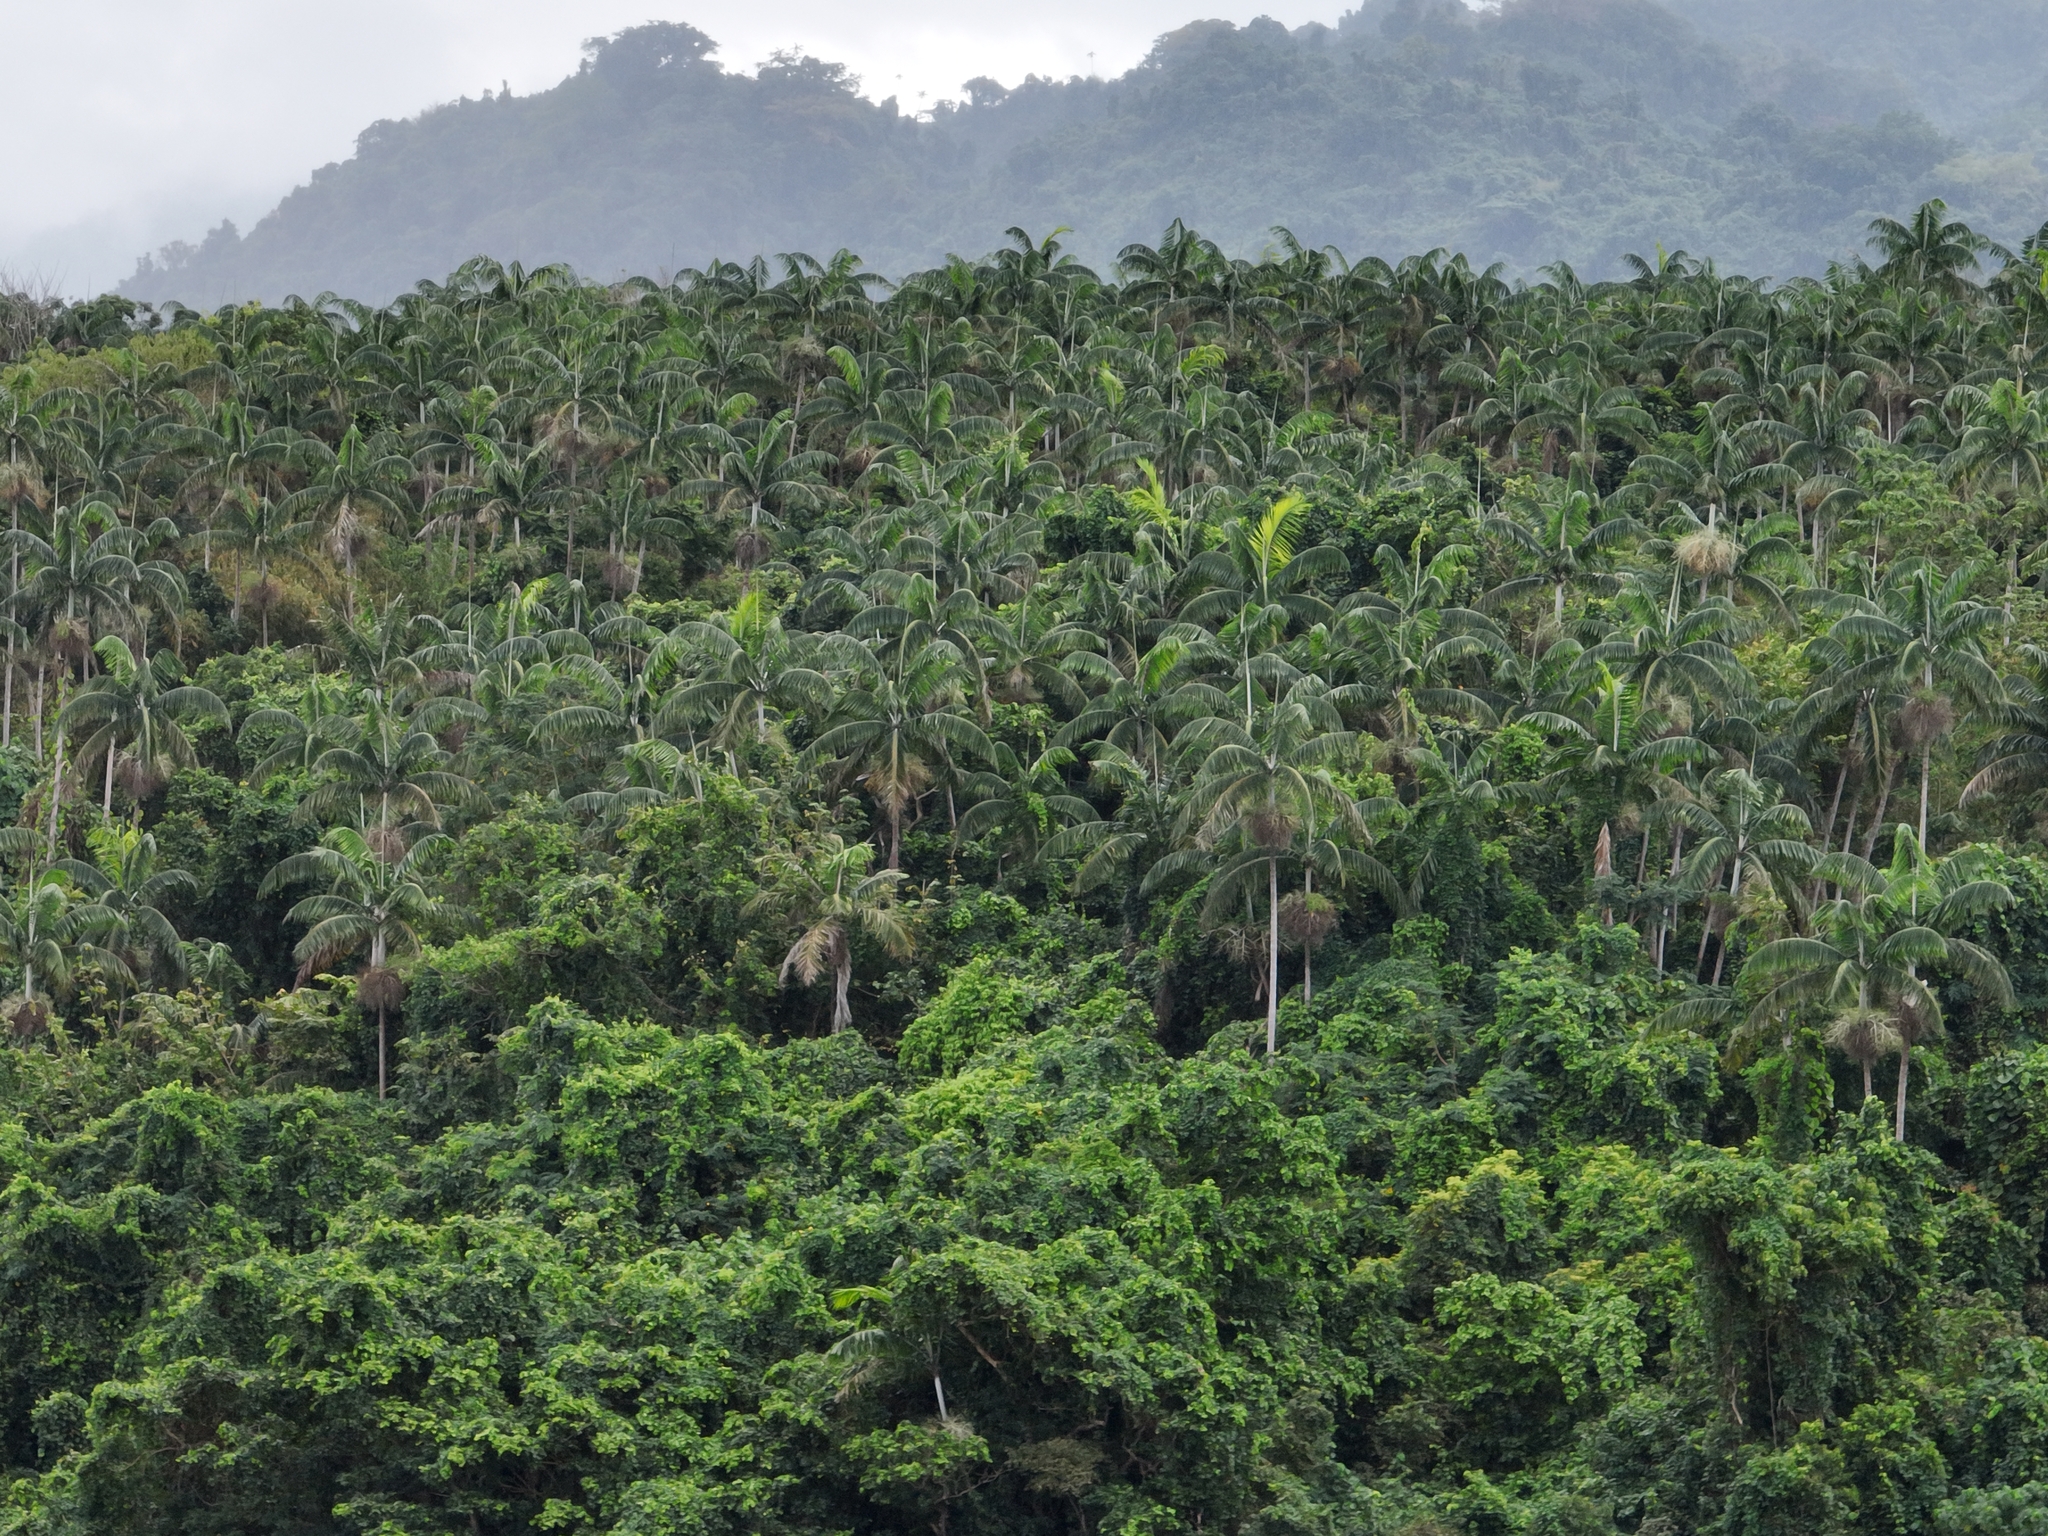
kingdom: Plantae
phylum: Tracheophyta
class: Liliopsida
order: Arecales
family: Arecaceae
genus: Clinostigma
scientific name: Clinostigma harlandii
